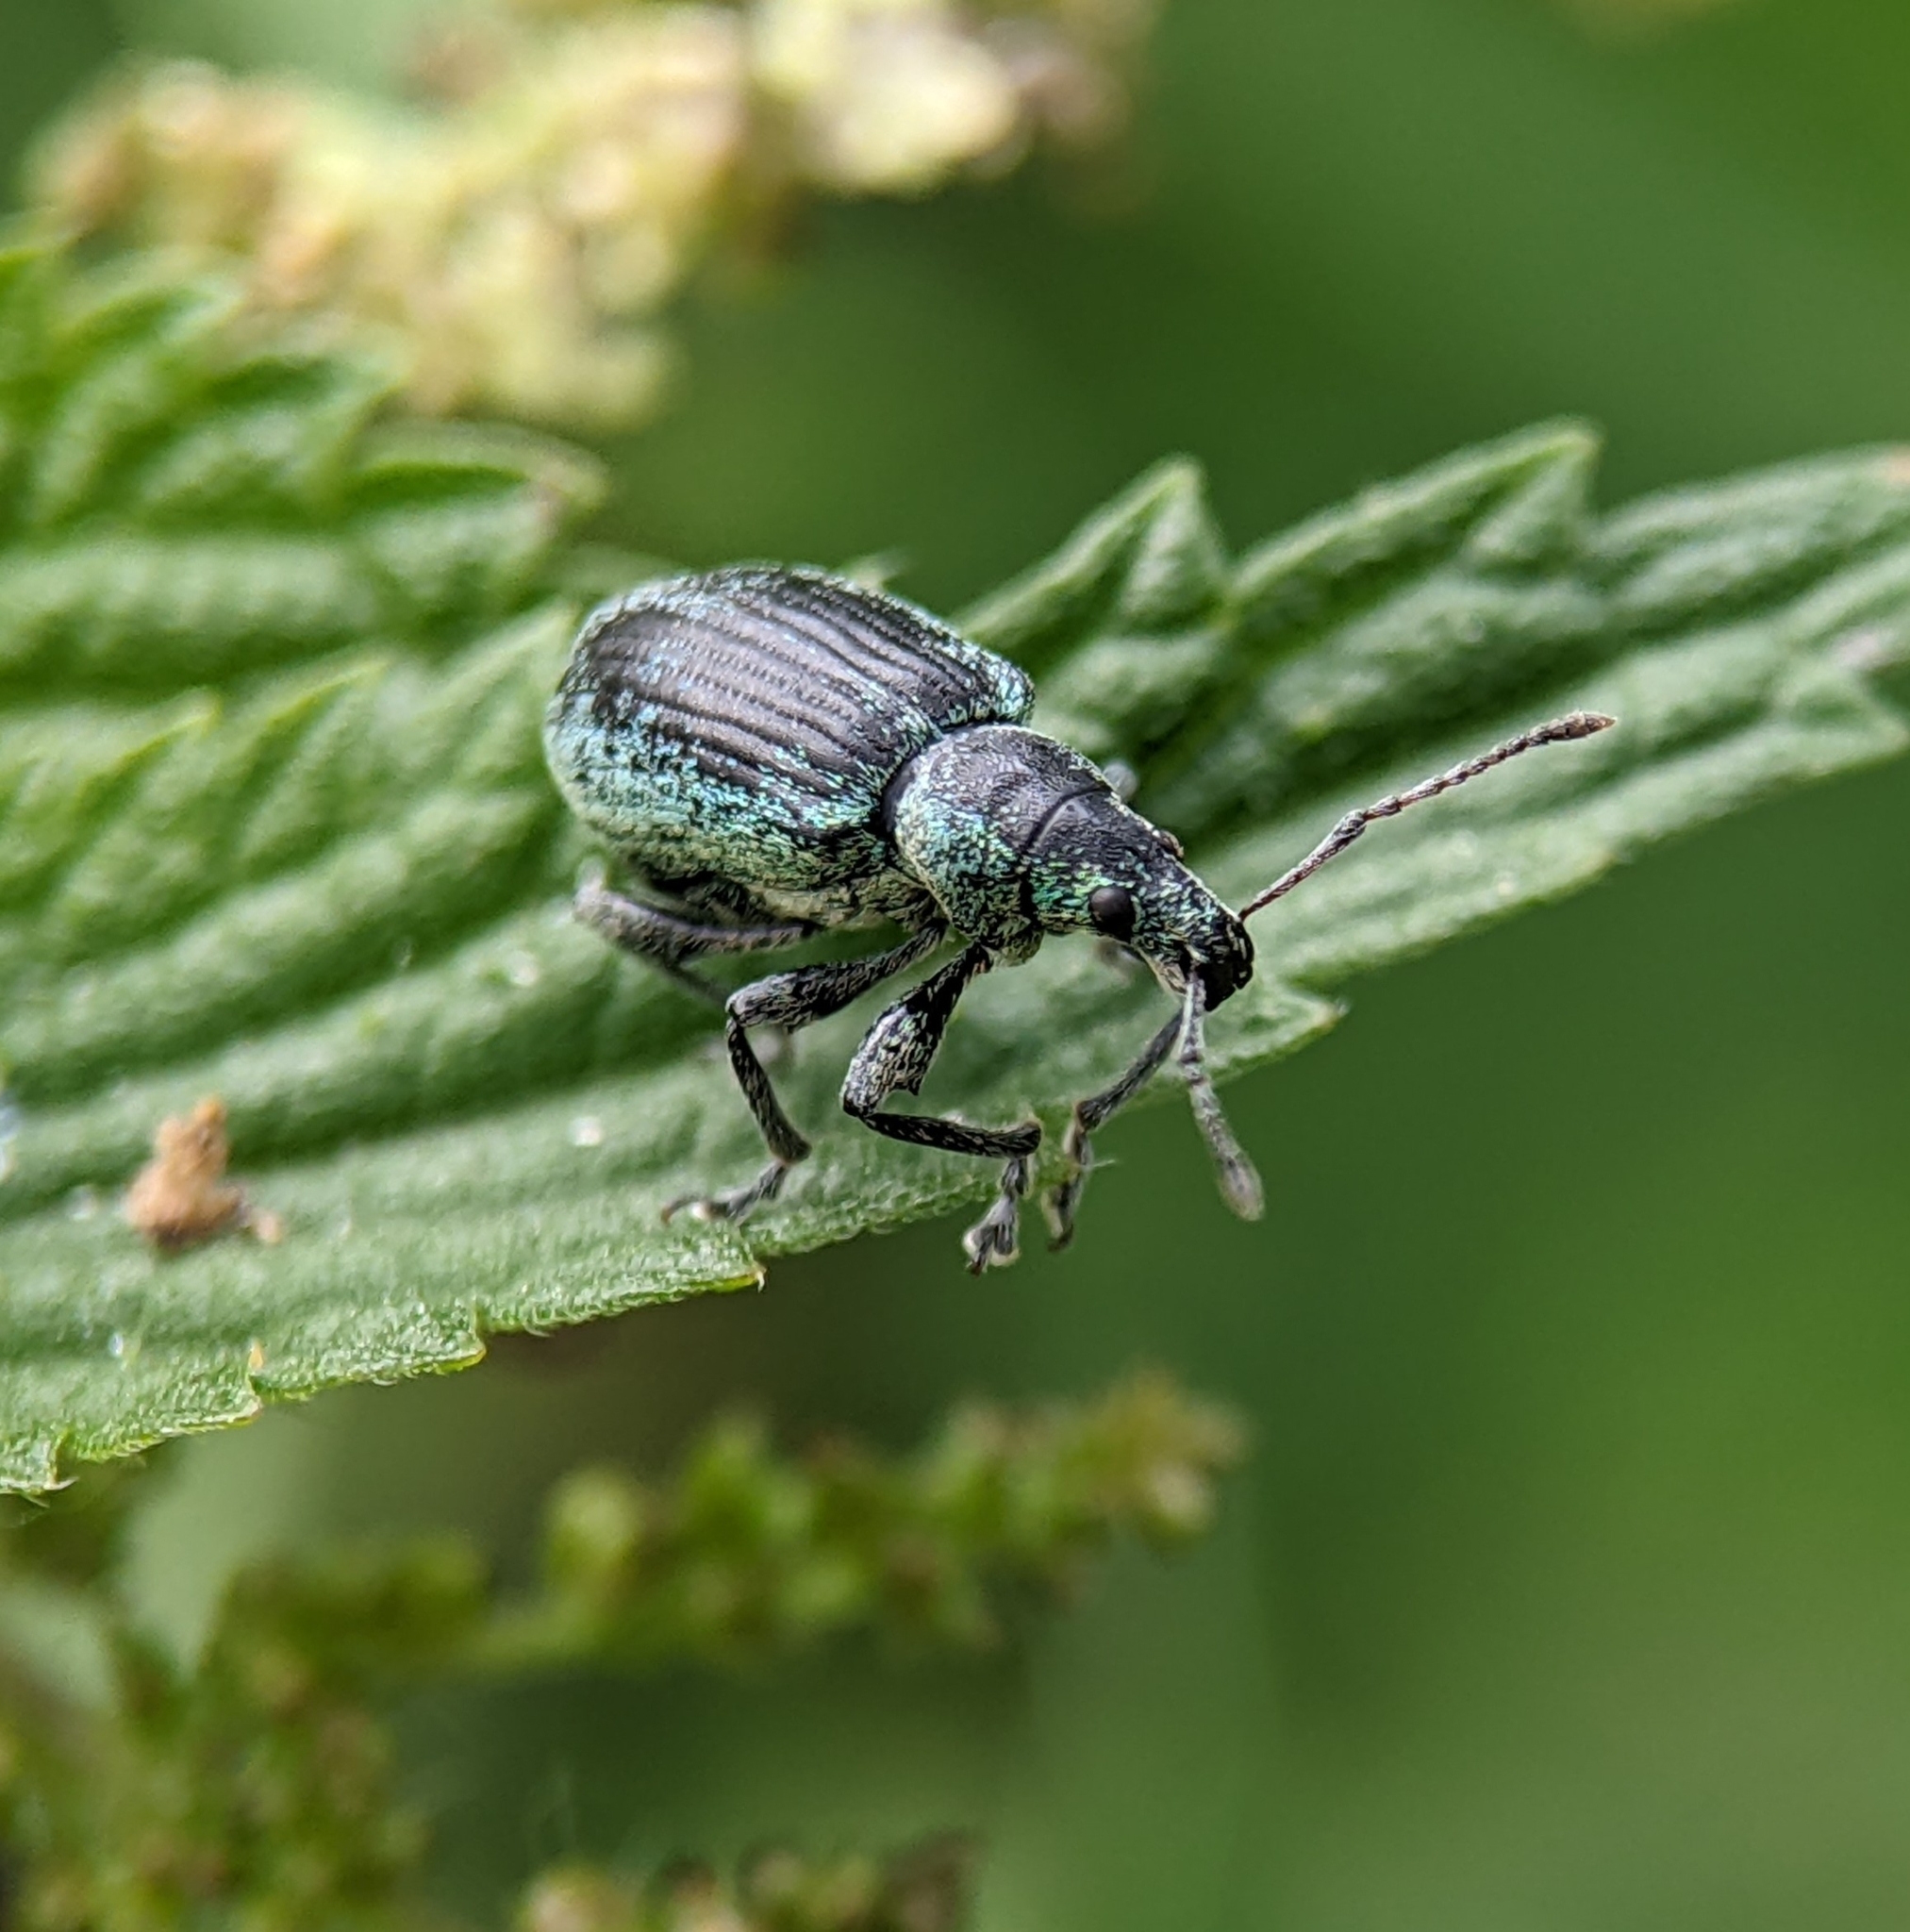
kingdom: Animalia
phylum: Arthropoda
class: Insecta
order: Coleoptera
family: Curculionidae
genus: Phyllobius
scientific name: Phyllobius pomaceus
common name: Green nettle weevil
